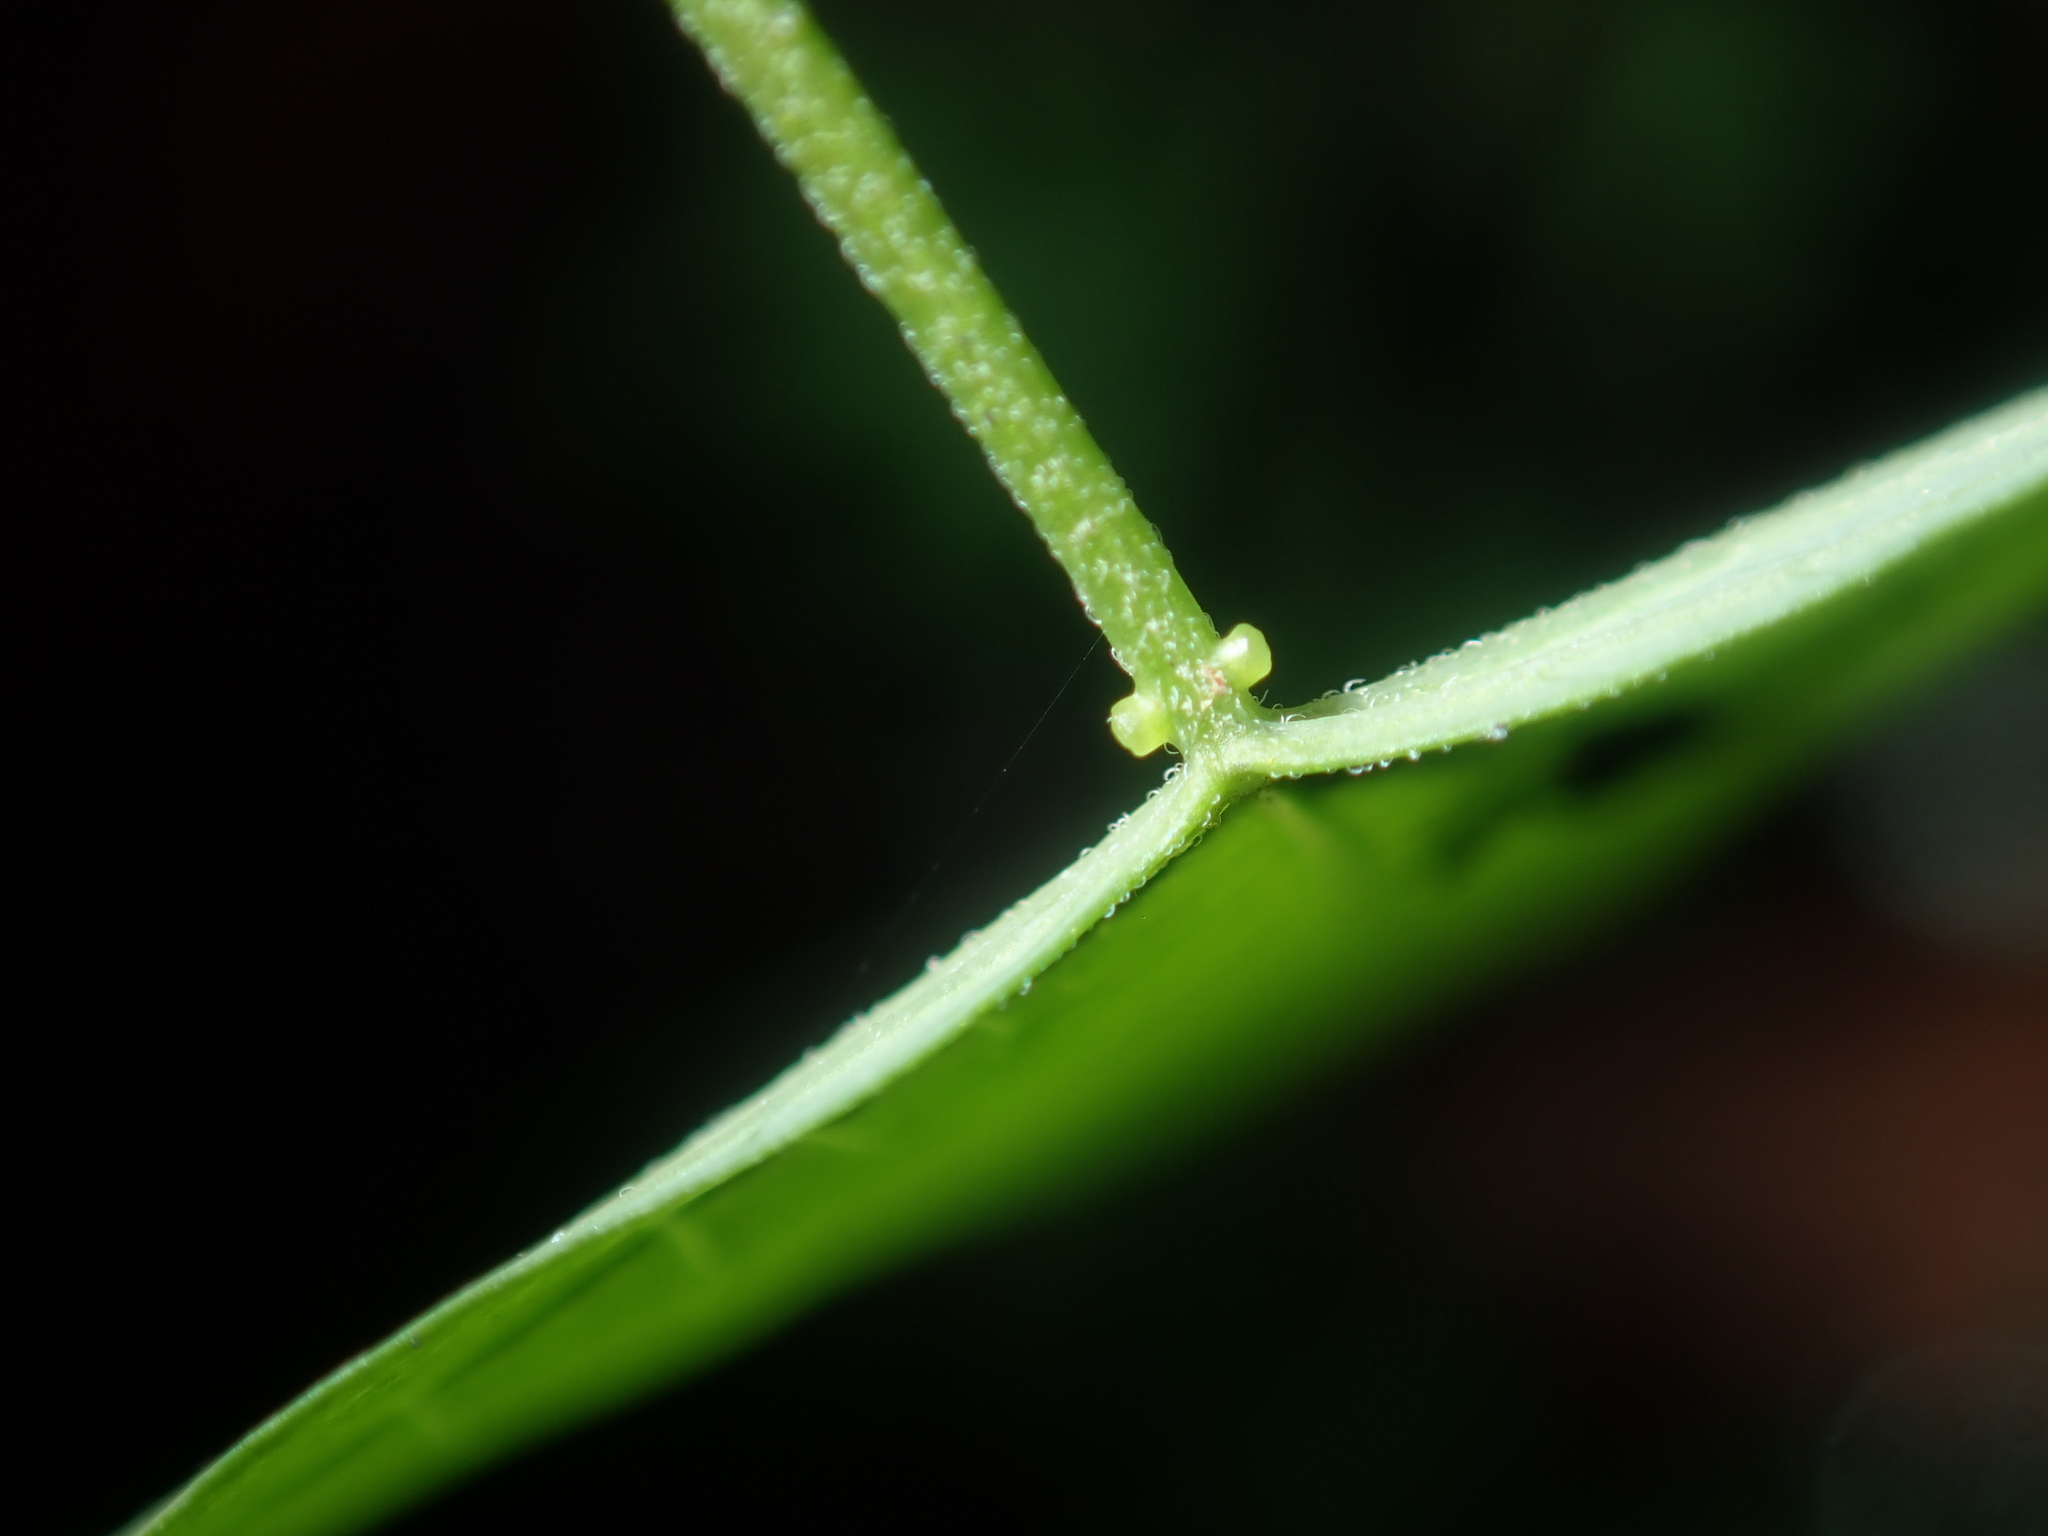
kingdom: Plantae
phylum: Tracheophyta
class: Magnoliopsida
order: Malpighiales
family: Passifloraceae
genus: Passiflora
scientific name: Passiflora herbertiana
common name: Yellow passionflower
